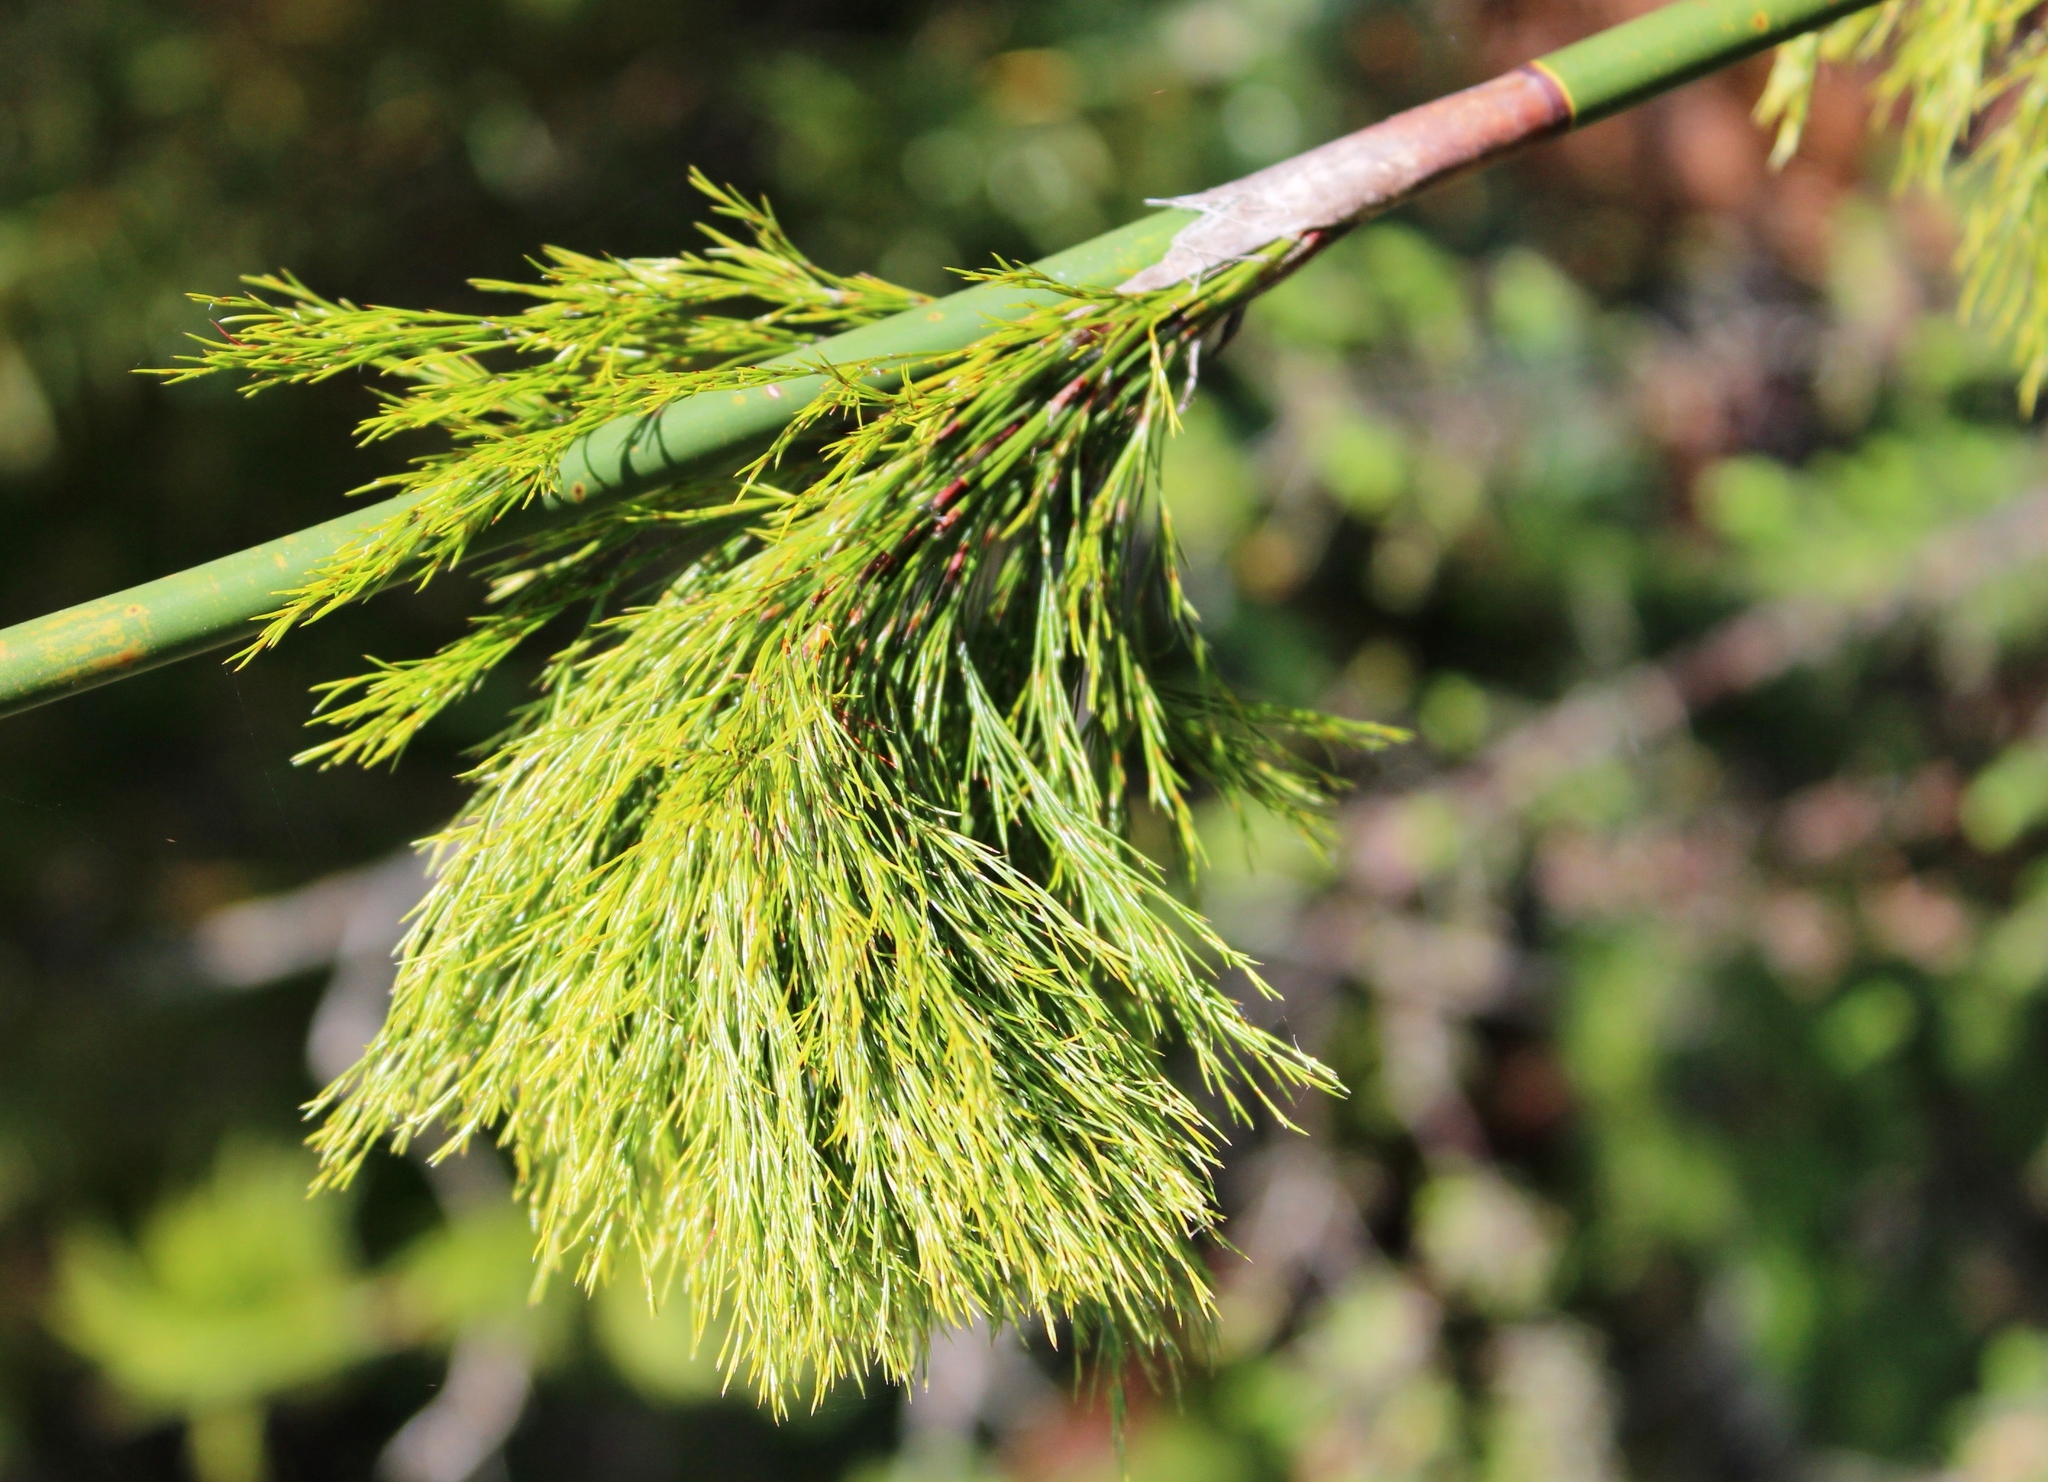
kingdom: Plantae
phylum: Tracheophyta
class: Liliopsida
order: Poales
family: Restionaceae
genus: Rhodocoma
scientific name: Rhodocoma gigantea
